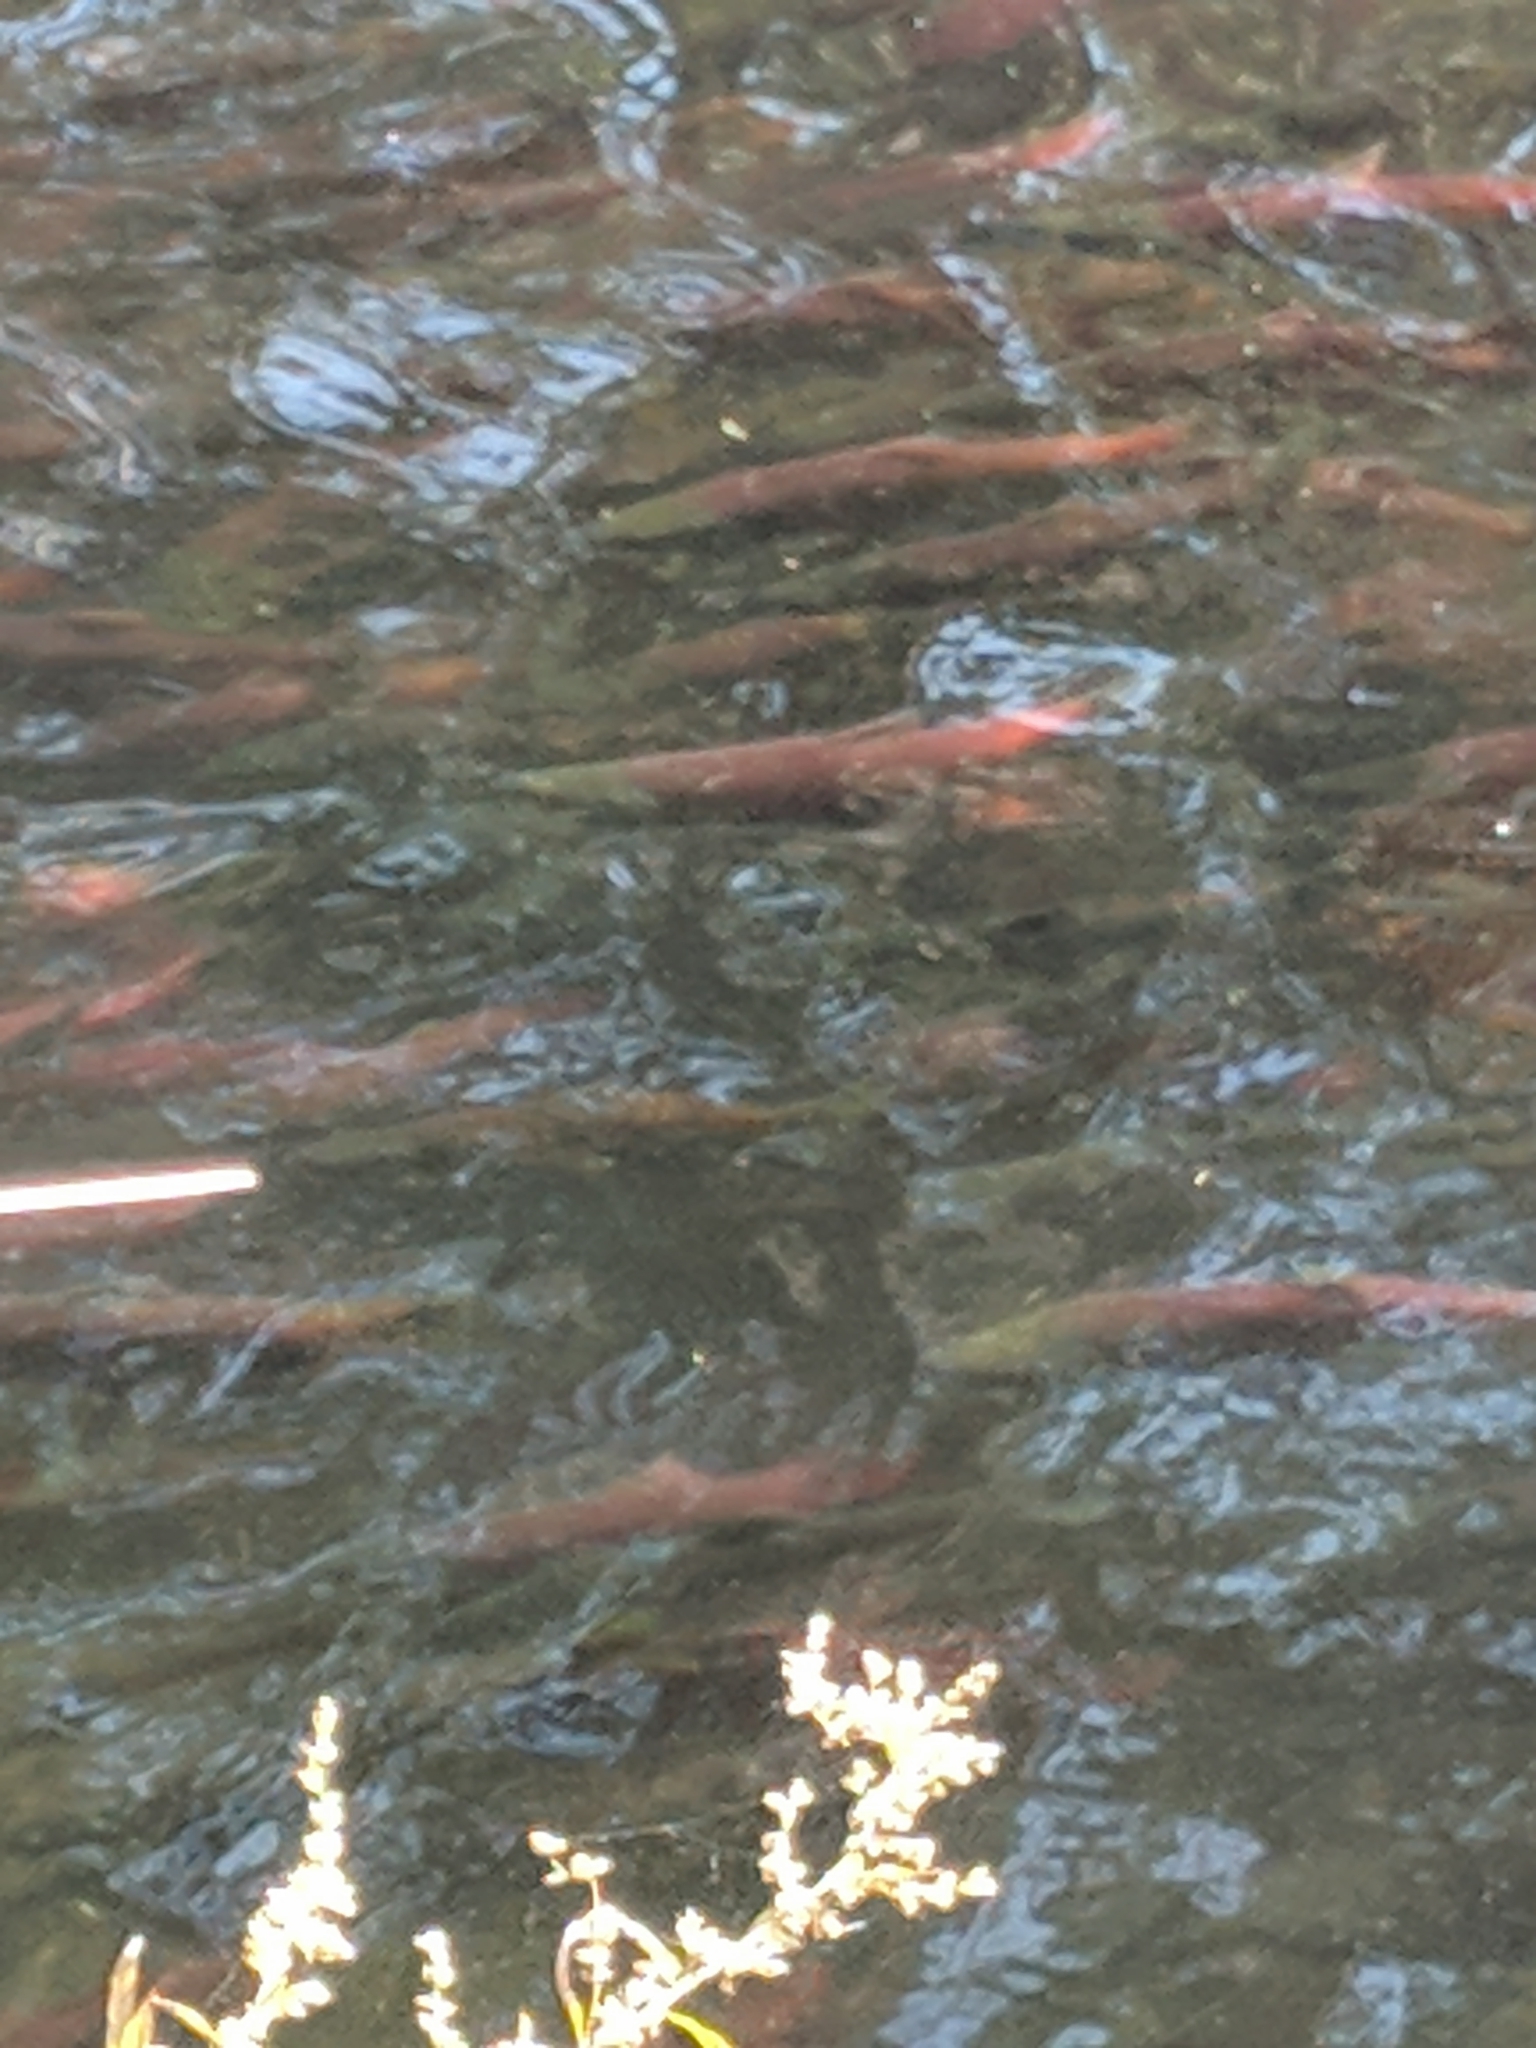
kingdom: Animalia
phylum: Chordata
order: Salmoniformes
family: Salmonidae
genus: Oncorhynchus
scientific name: Oncorhynchus nerka
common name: Sockeye salmon
